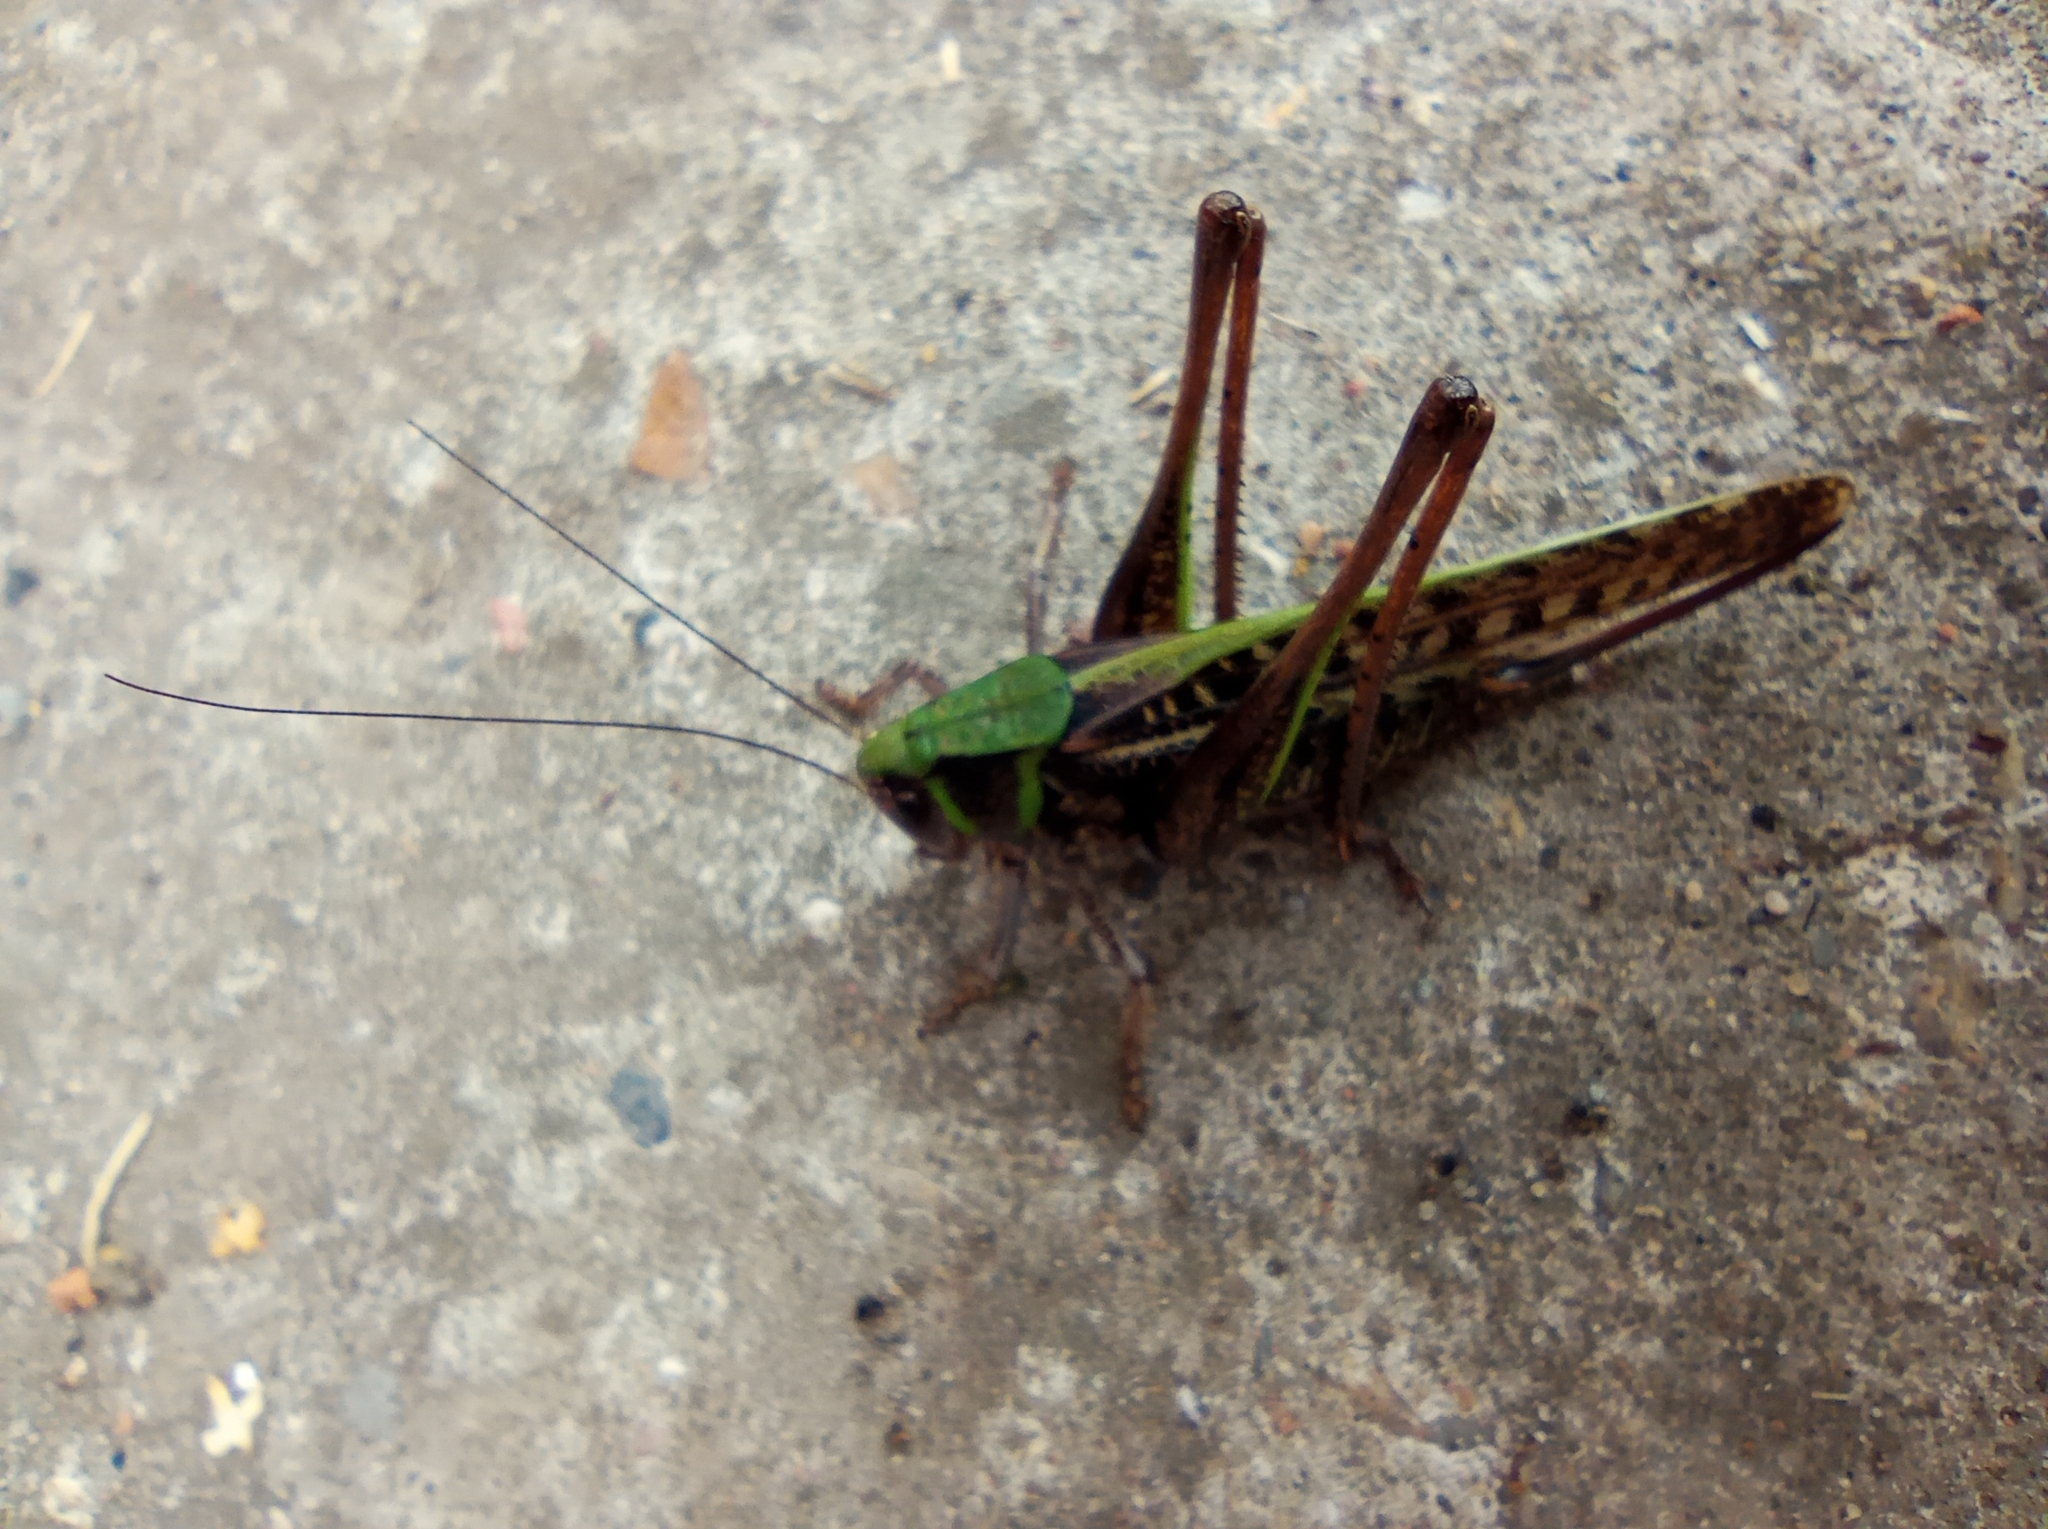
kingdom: Animalia
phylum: Arthropoda
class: Insecta
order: Orthoptera
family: Tettigoniidae
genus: Decticus
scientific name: Decticus verrucivorus
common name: Wart-biter
